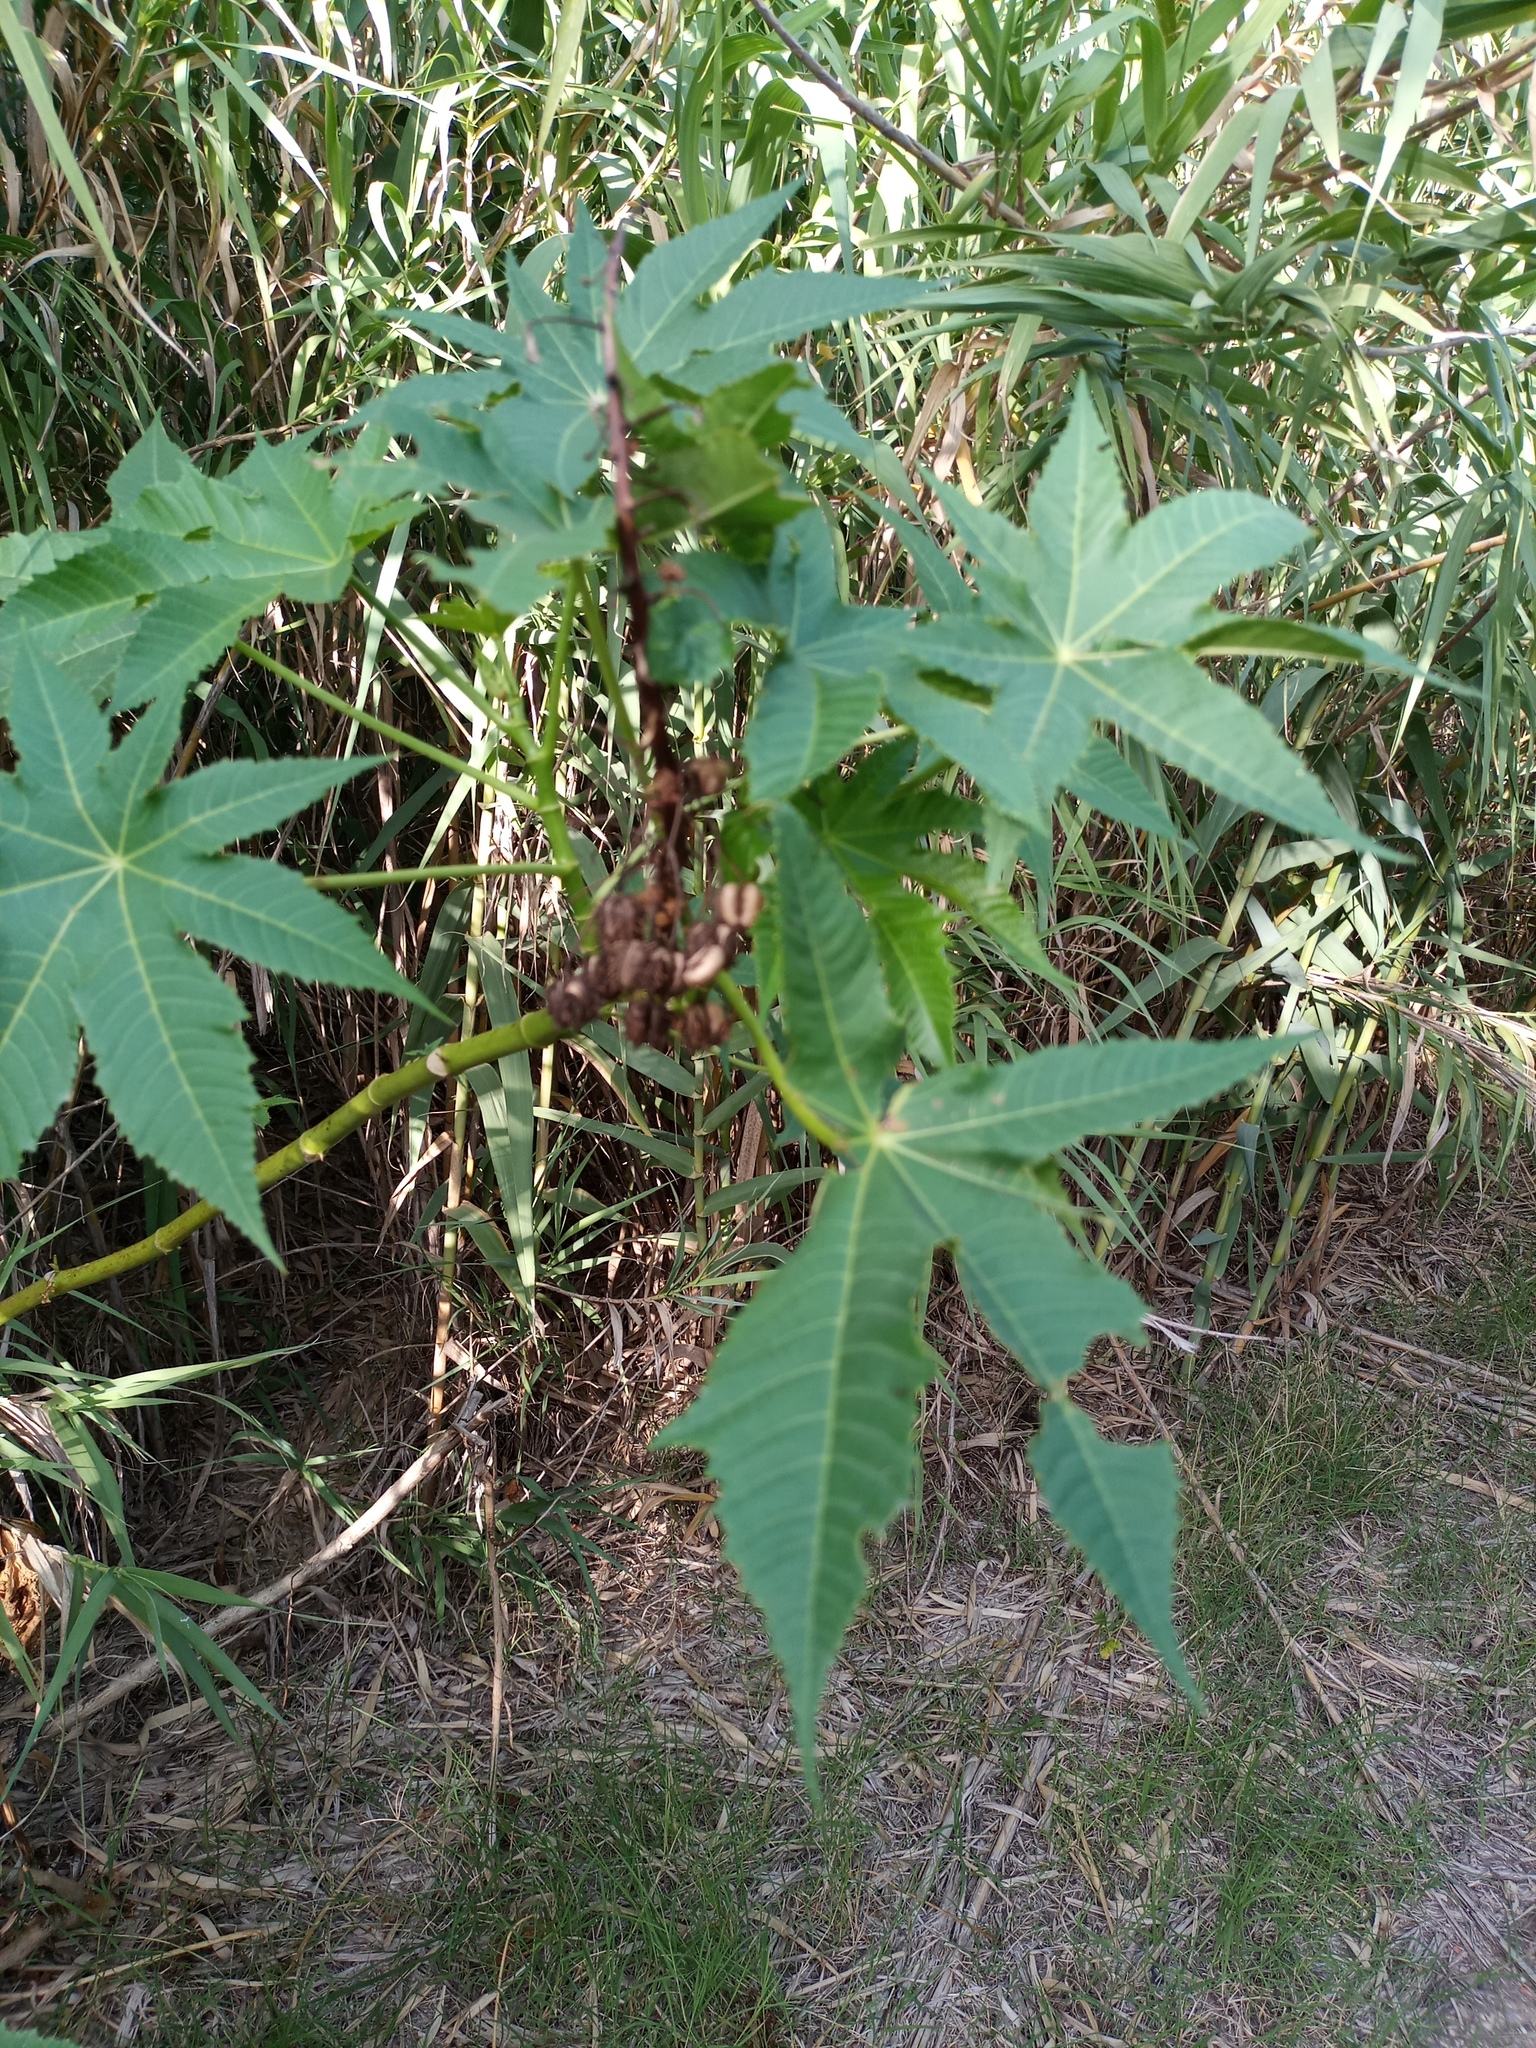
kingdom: Plantae
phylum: Tracheophyta
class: Magnoliopsida
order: Malpighiales
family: Euphorbiaceae
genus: Ricinus
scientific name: Ricinus communis
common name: Castor-oil-plant
